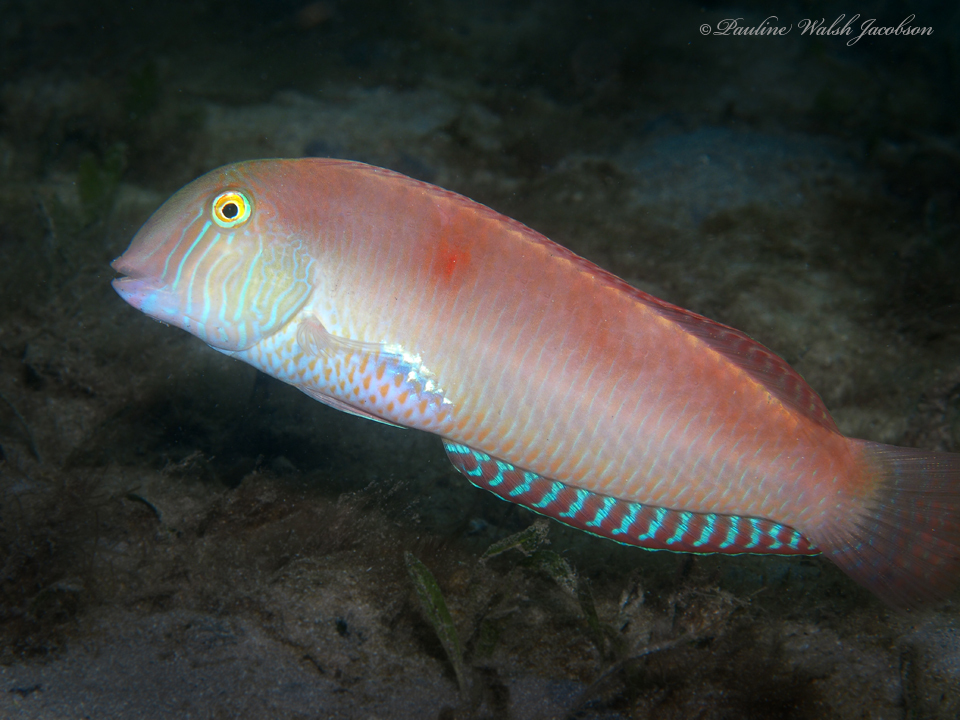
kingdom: Animalia
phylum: Chordata
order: Perciformes
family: Labridae
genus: Xyrichtys
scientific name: Xyrichtys novacula
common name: Pearly razorfish
